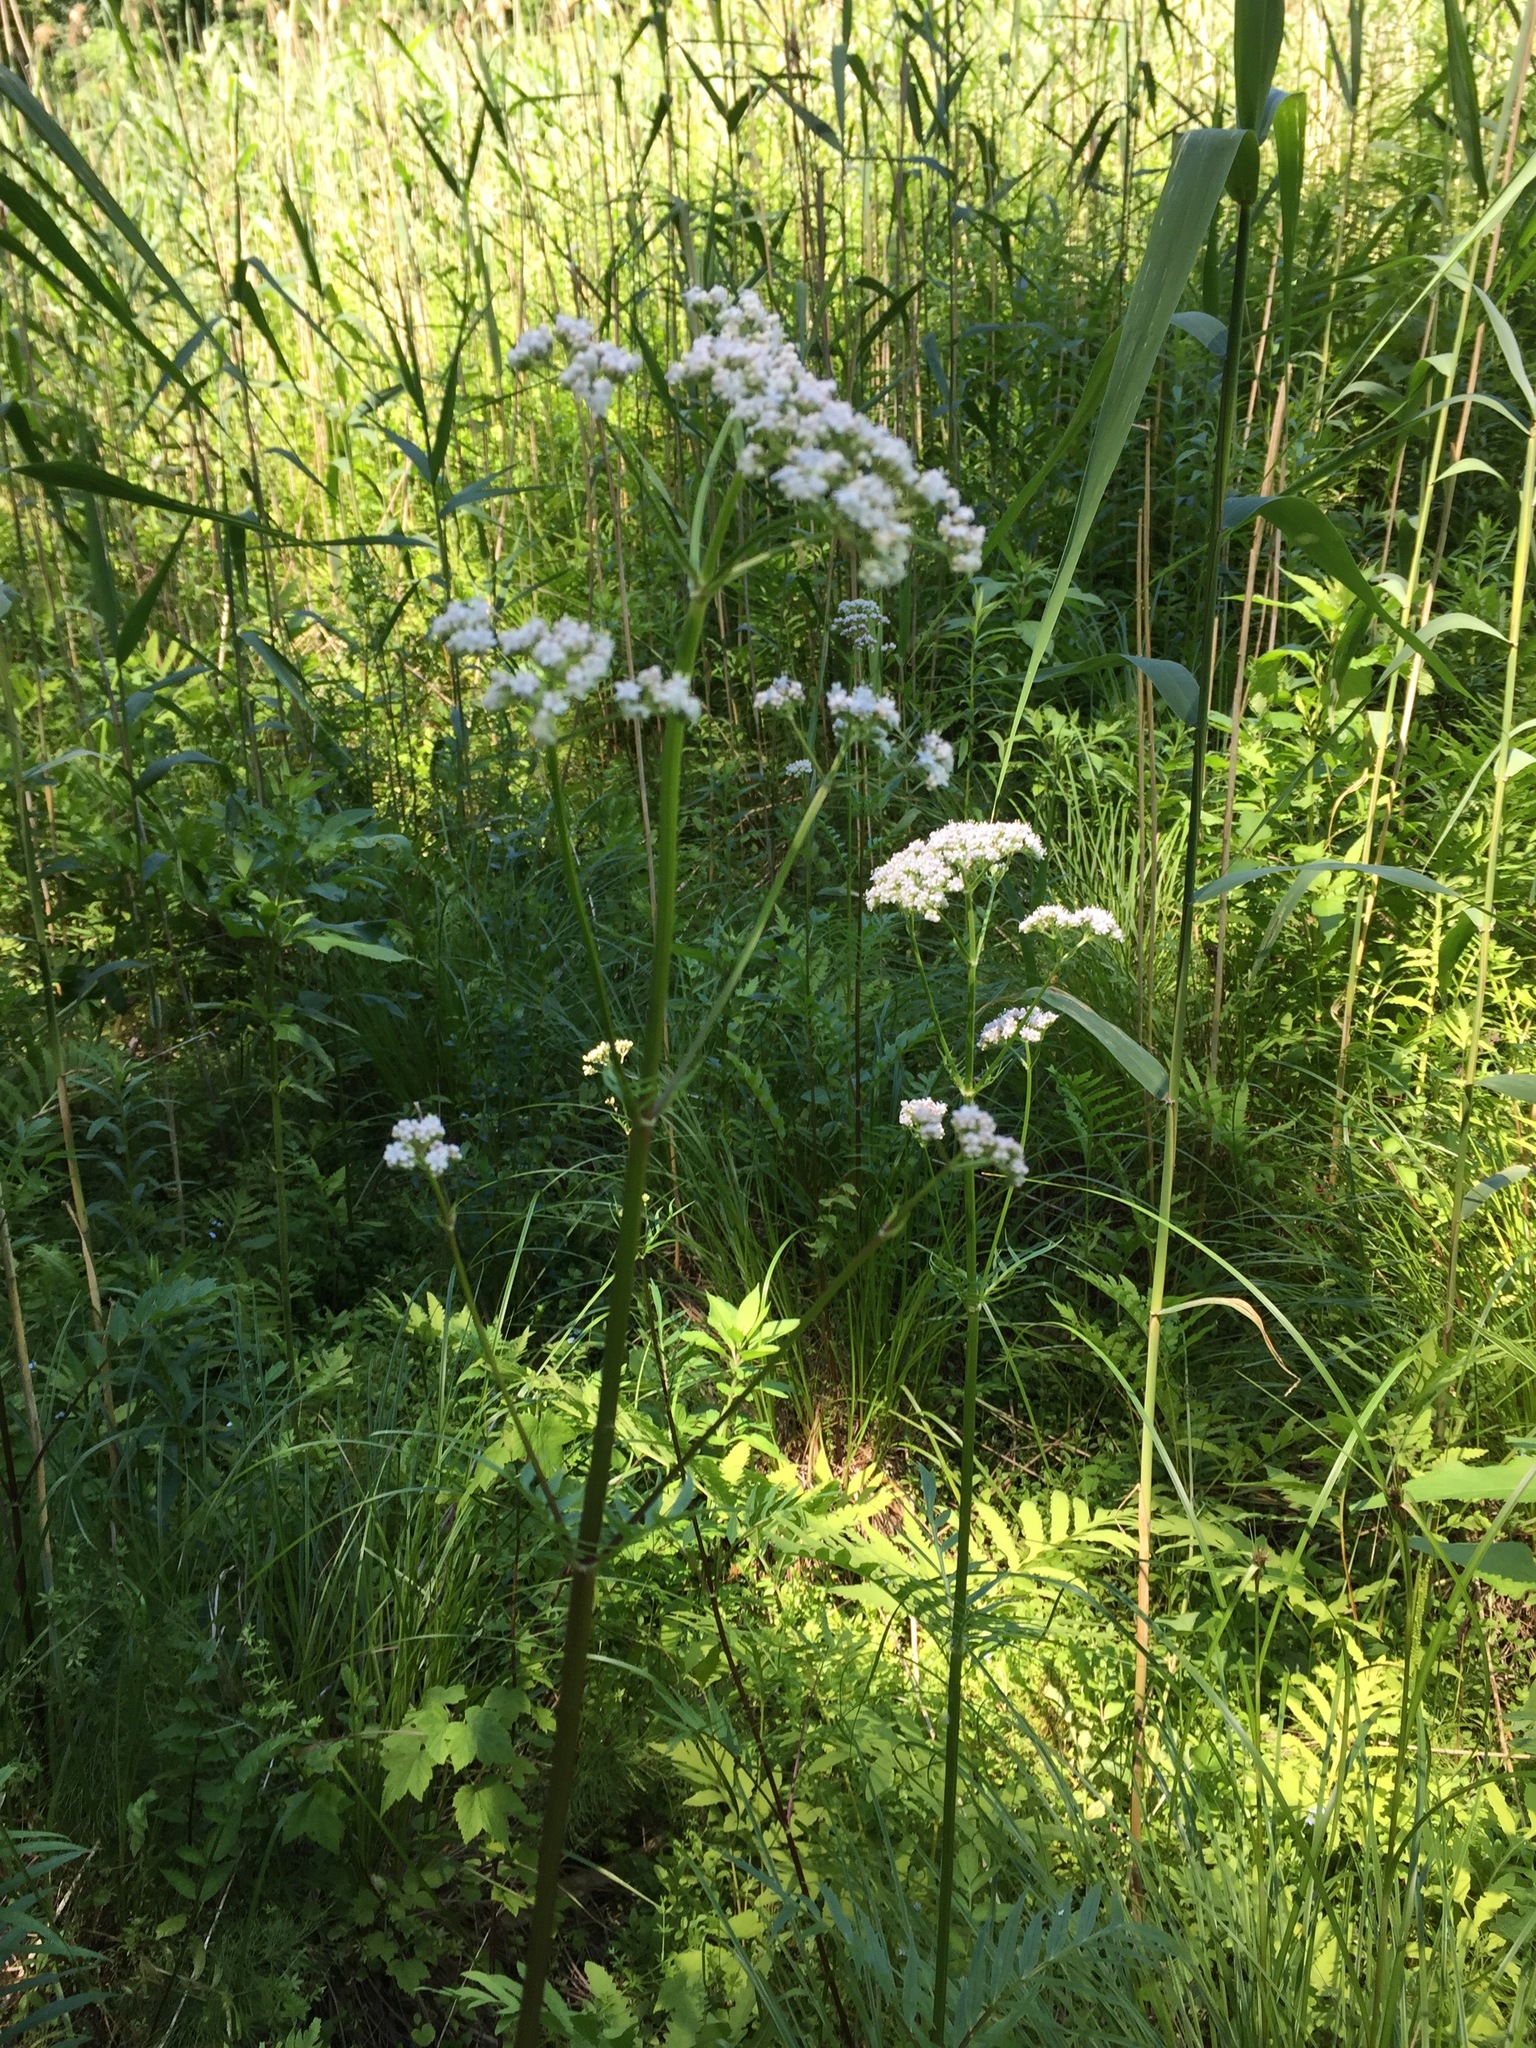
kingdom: Plantae
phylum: Tracheophyta
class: Magnoliopsida
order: Dipsacales
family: Caprifoliaceae
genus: Valeriana
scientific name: Valeriana officinalis
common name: Common valerian
